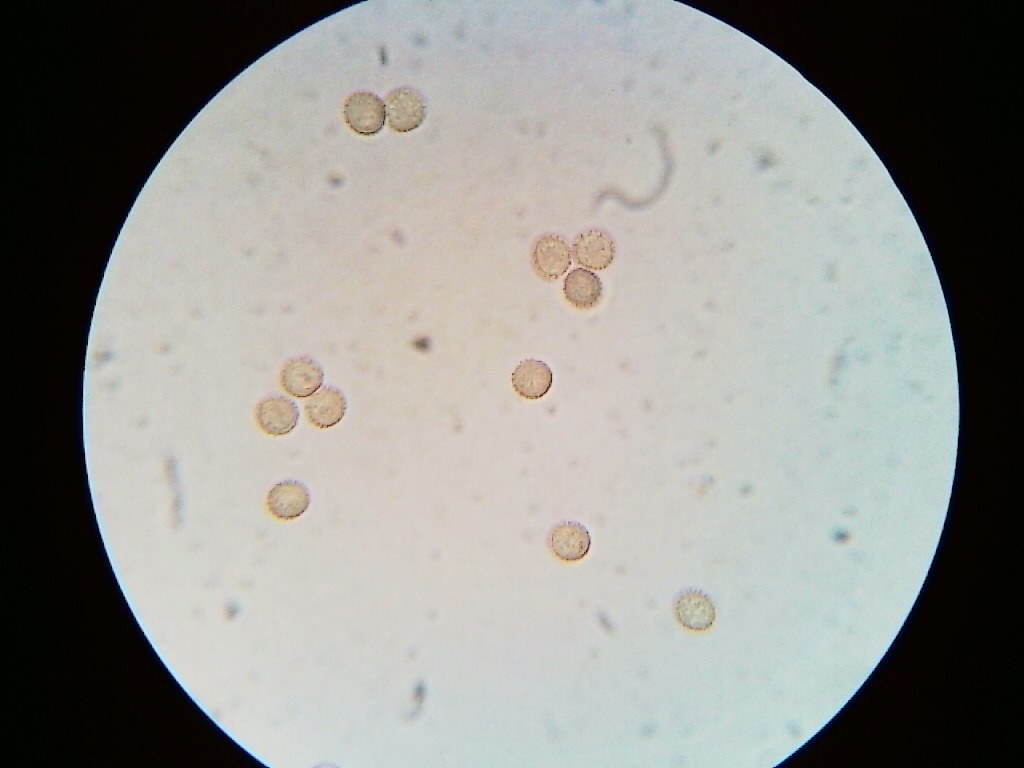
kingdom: Protozoa
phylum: Mycetozoa
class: Myxomycetes
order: Cribrariales
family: Tubiferaceae
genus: Tubifera
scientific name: Tubifera magna
